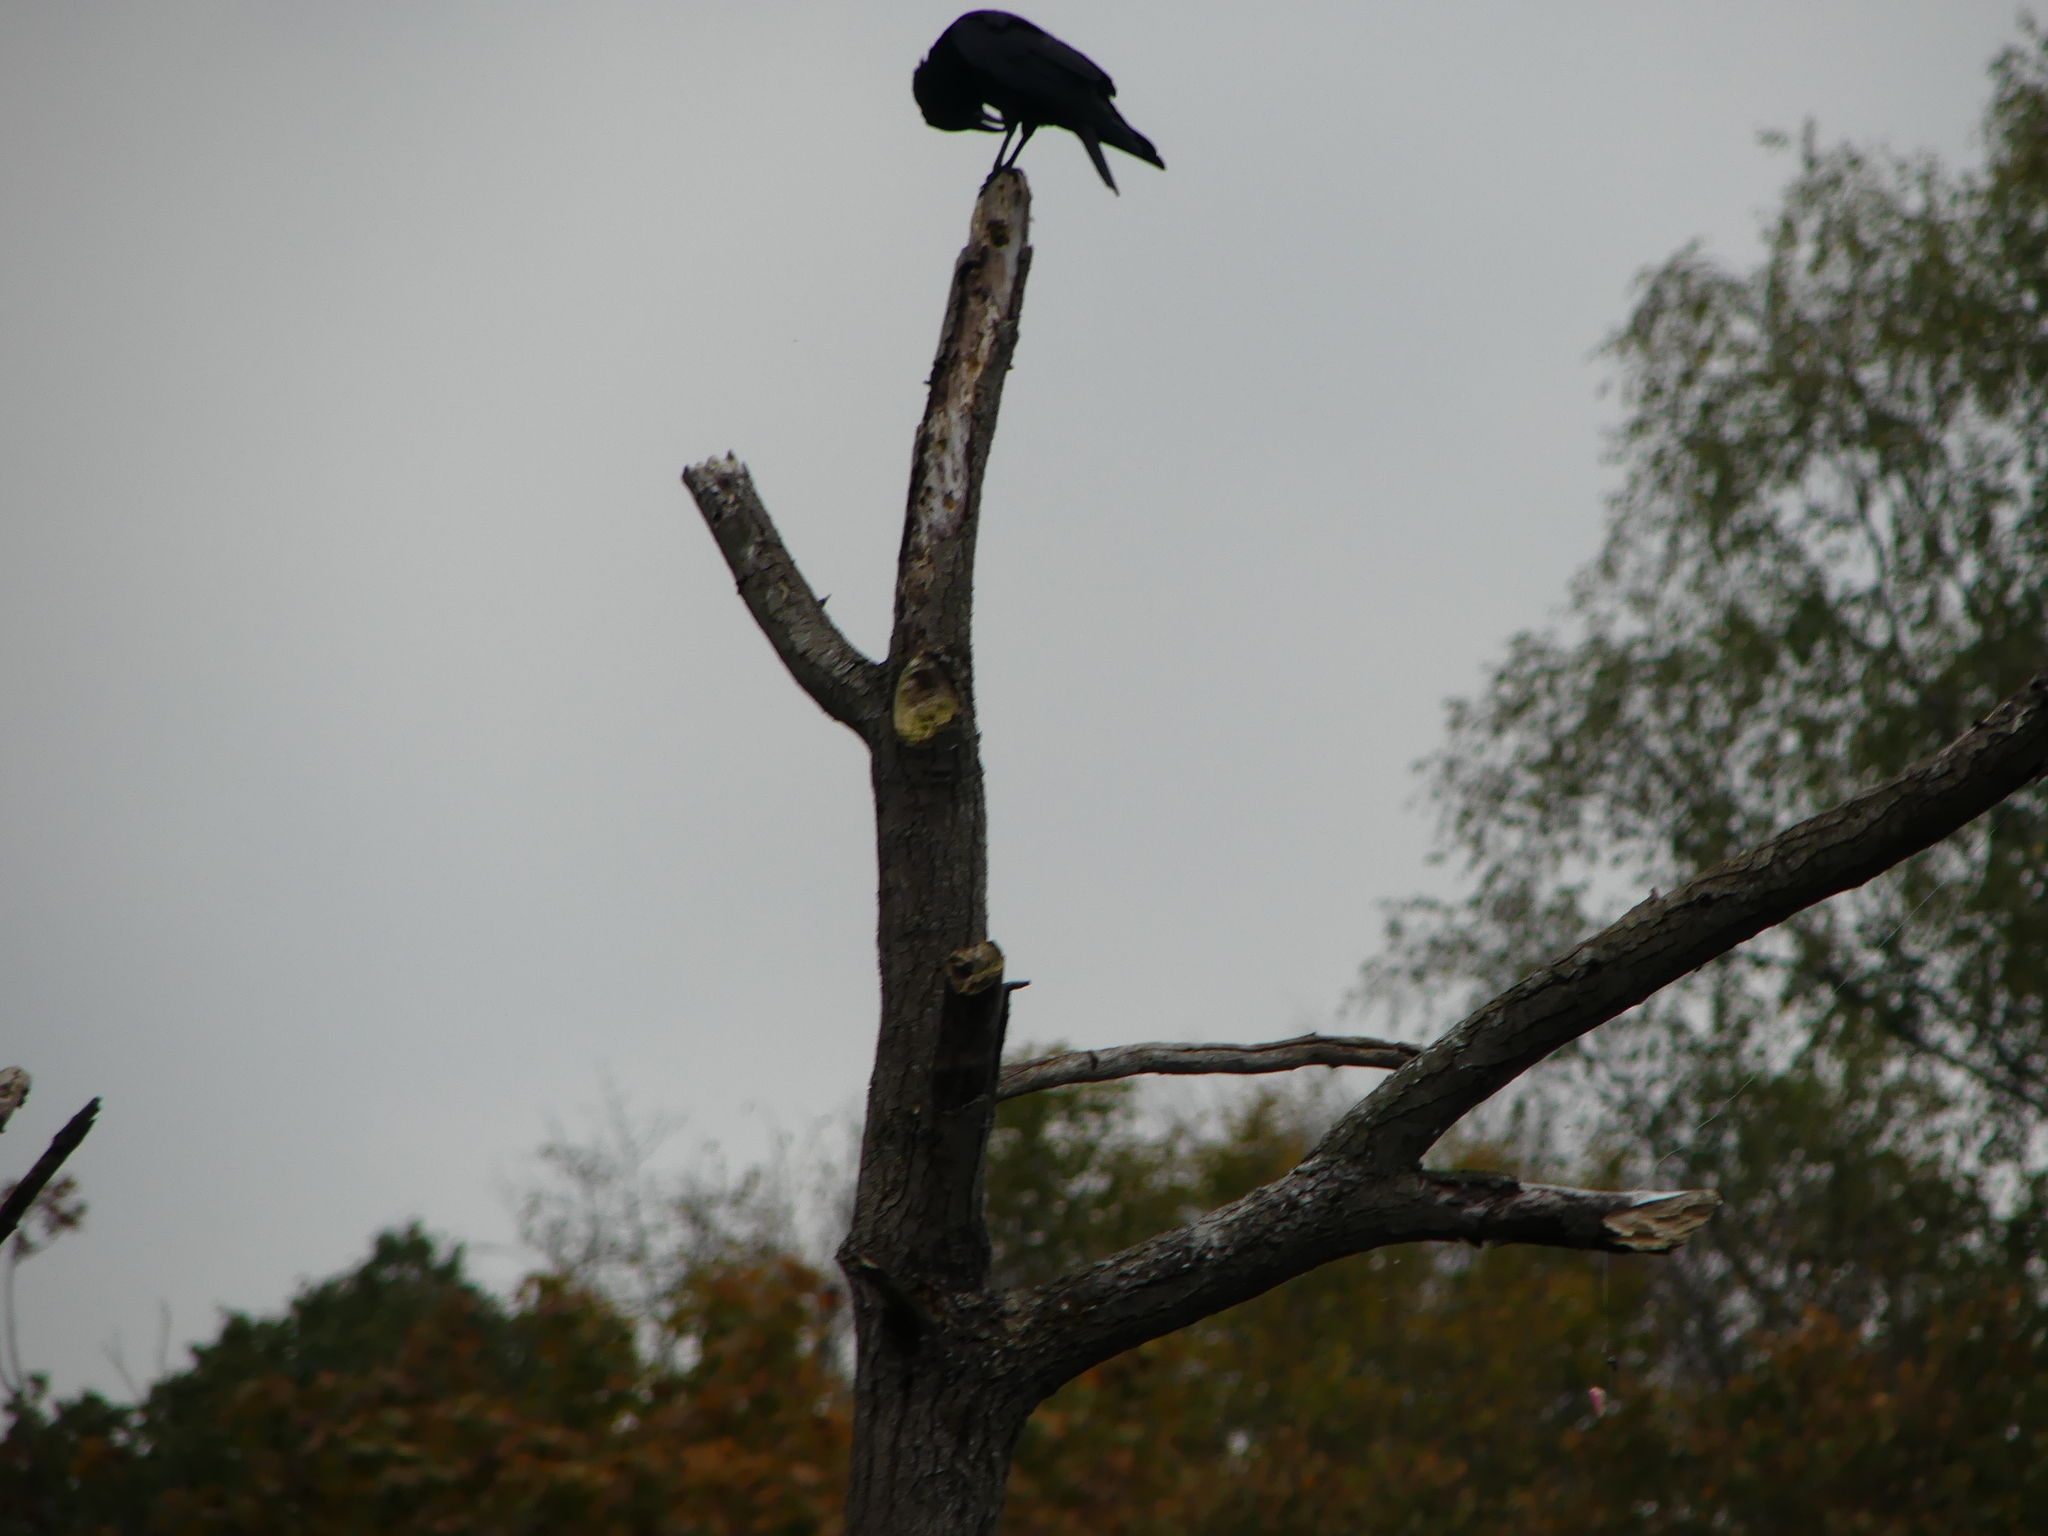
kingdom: Animalia
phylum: Chordata
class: Aves
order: Passeriformes
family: Corvidae
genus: Corvus
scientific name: Corvus corone
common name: Carrion crow
